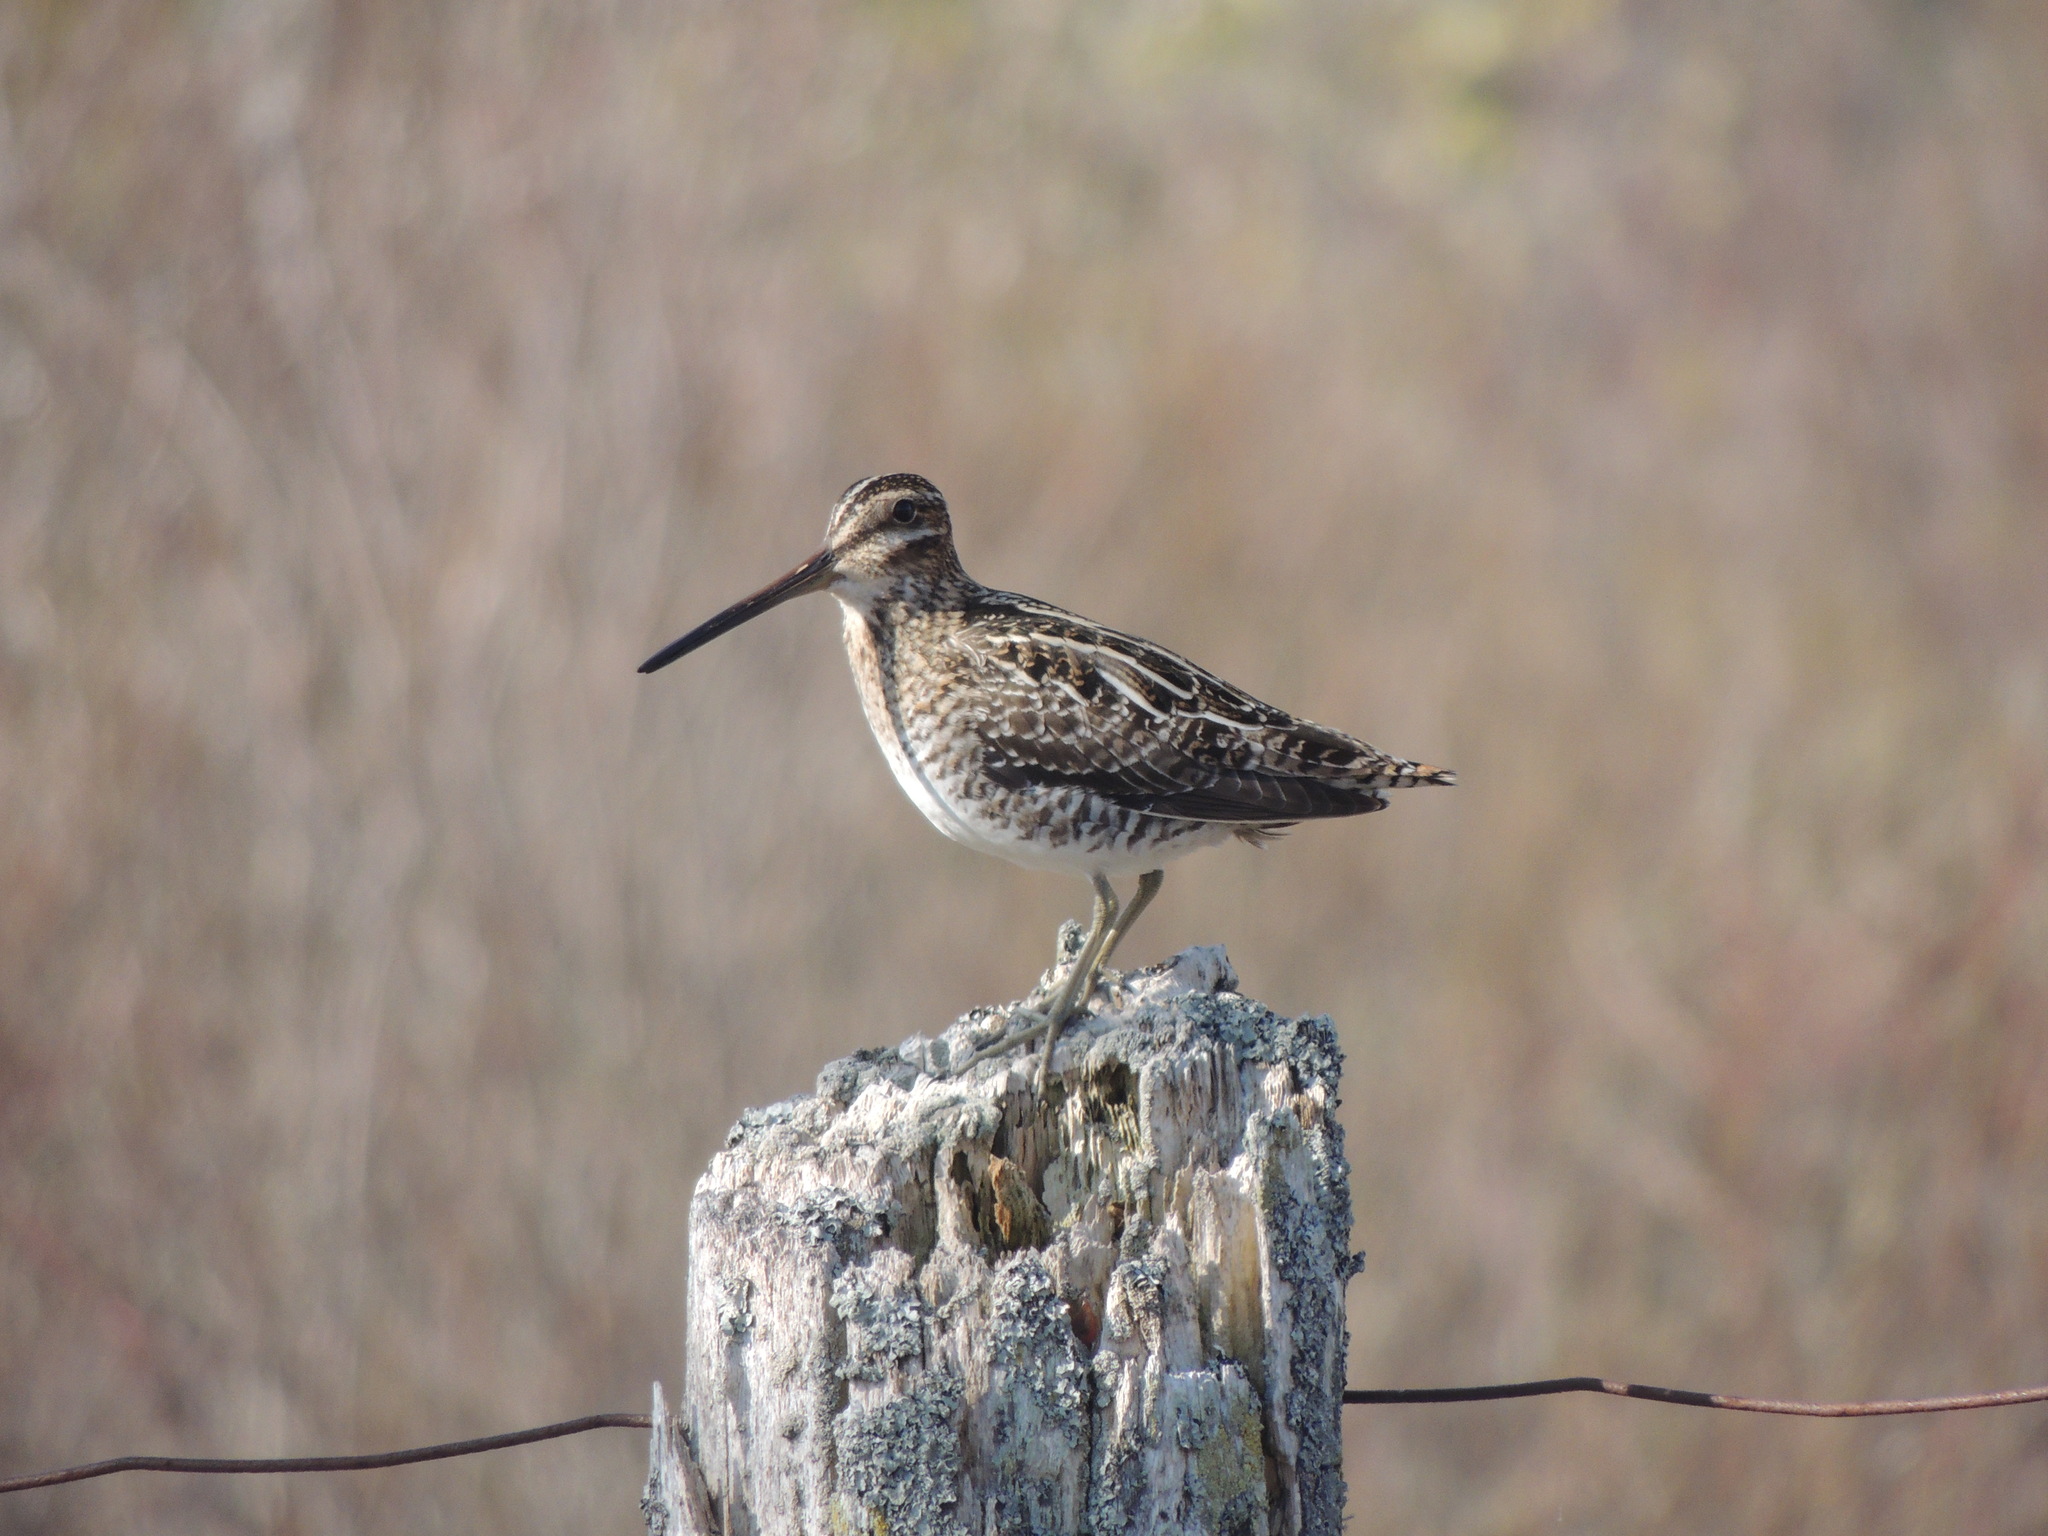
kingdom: Animalia
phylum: Chordata
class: Aves
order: Charadriiformes
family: Scolopacidae
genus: Gallinago
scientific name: Gallinago delicata
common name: Wilson's snipe
